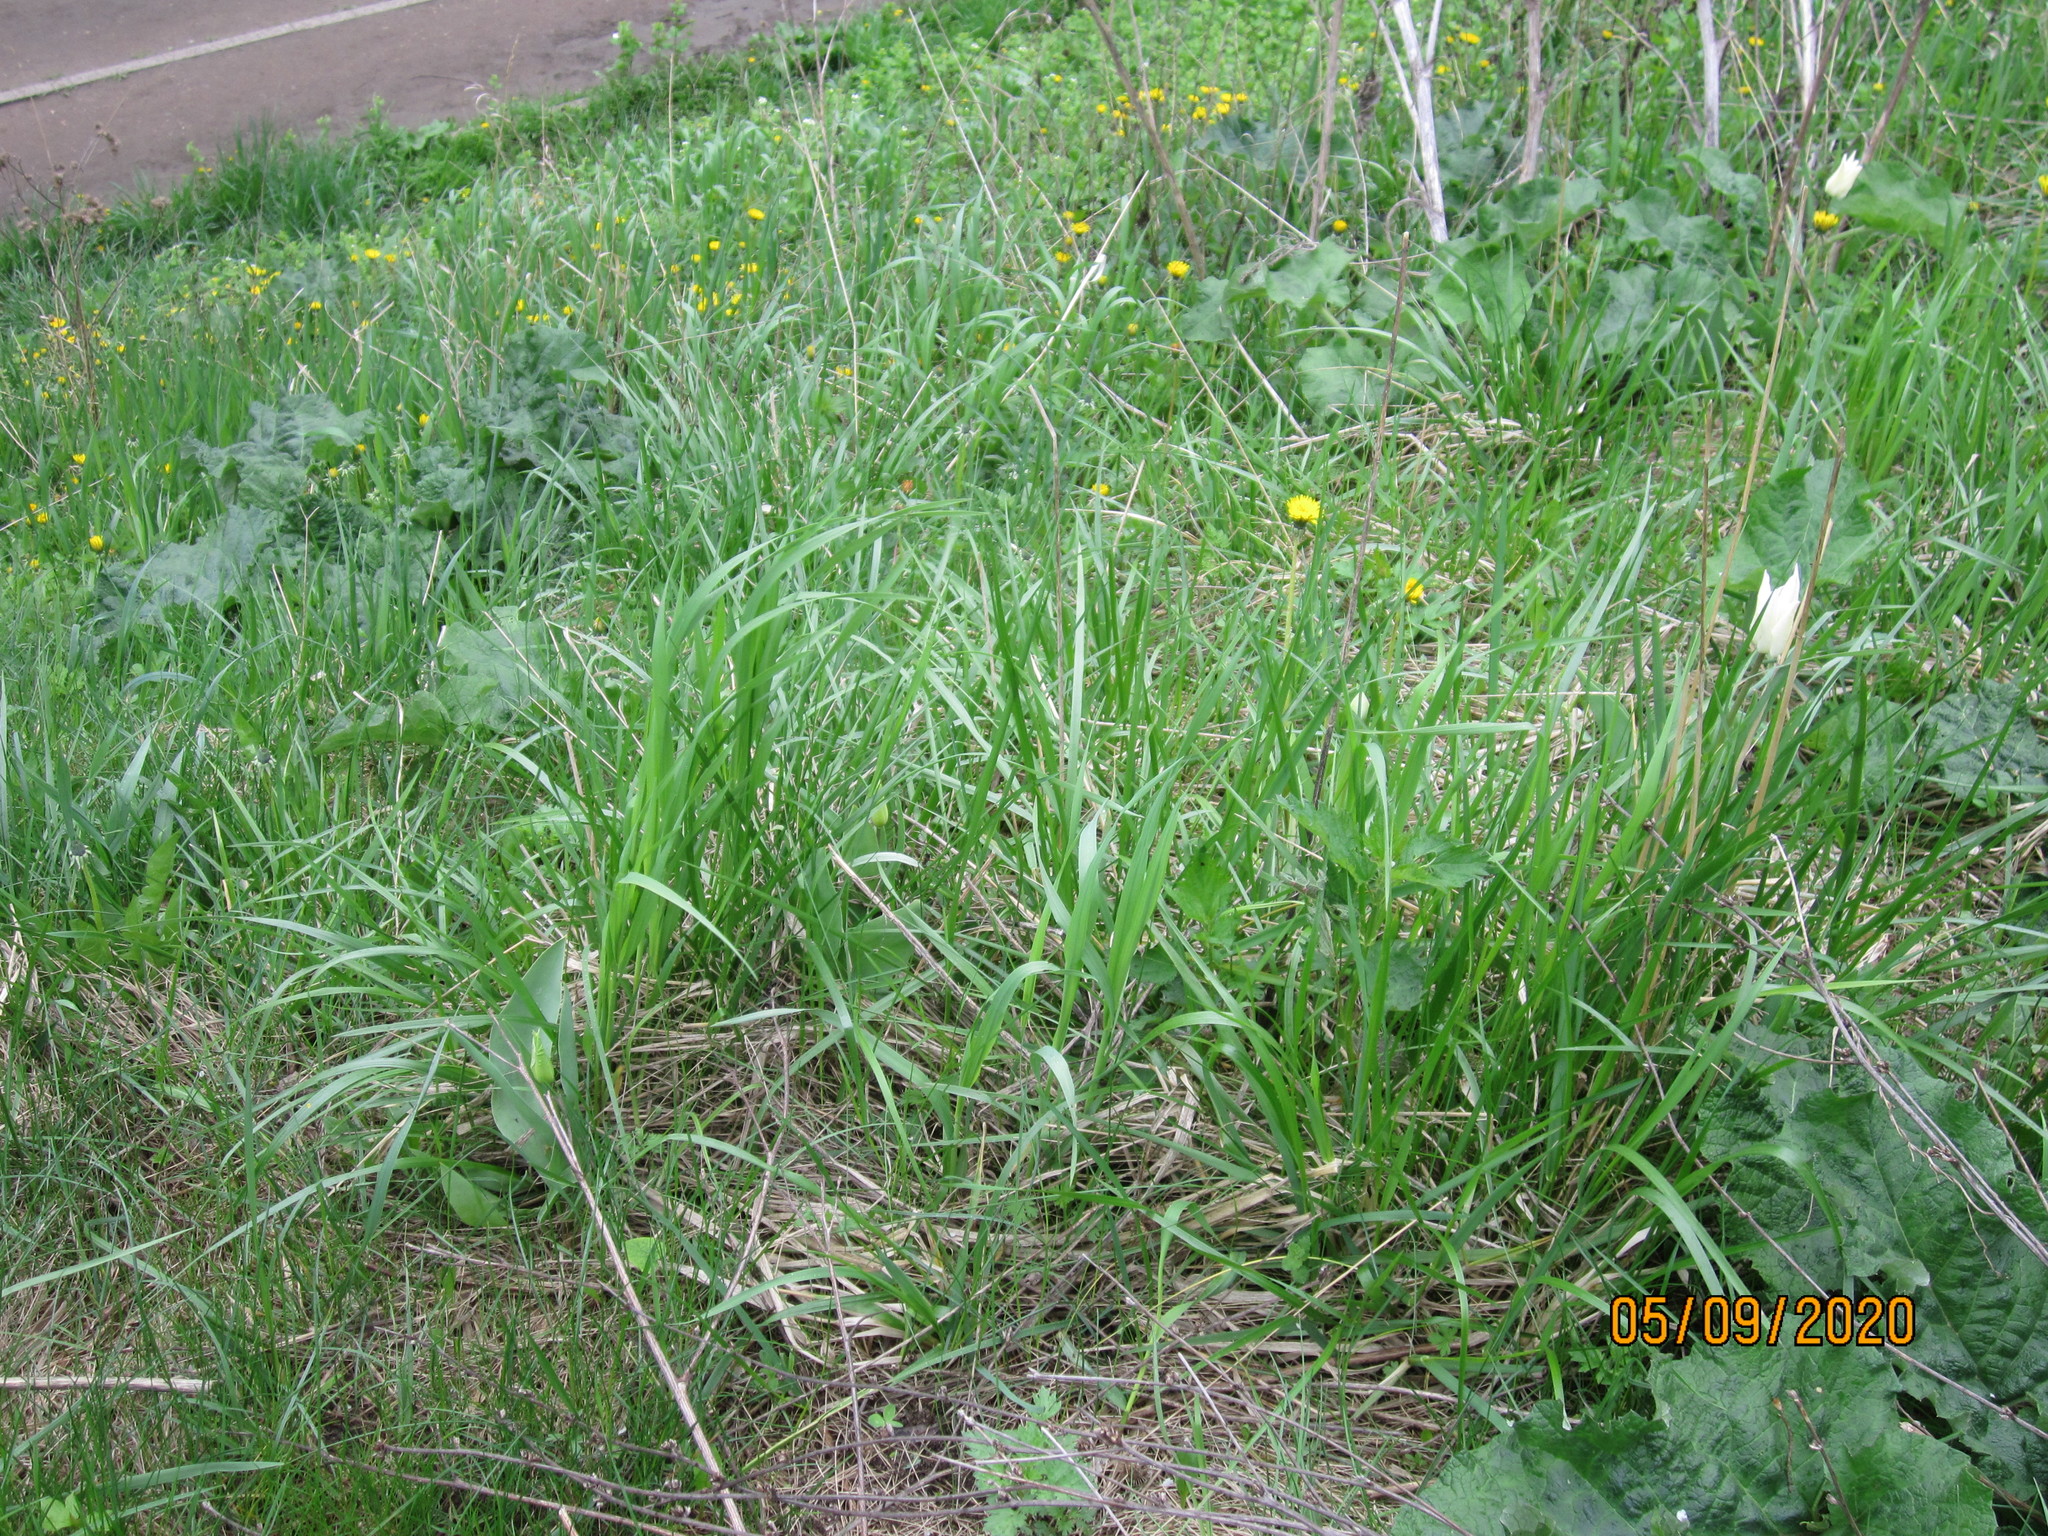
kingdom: Plantae
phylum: Tracheophyta
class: Liliopsida
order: Liliales
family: Liliaceae
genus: Tulipa
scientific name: Tulipa gesneriana
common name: Garden tulip
